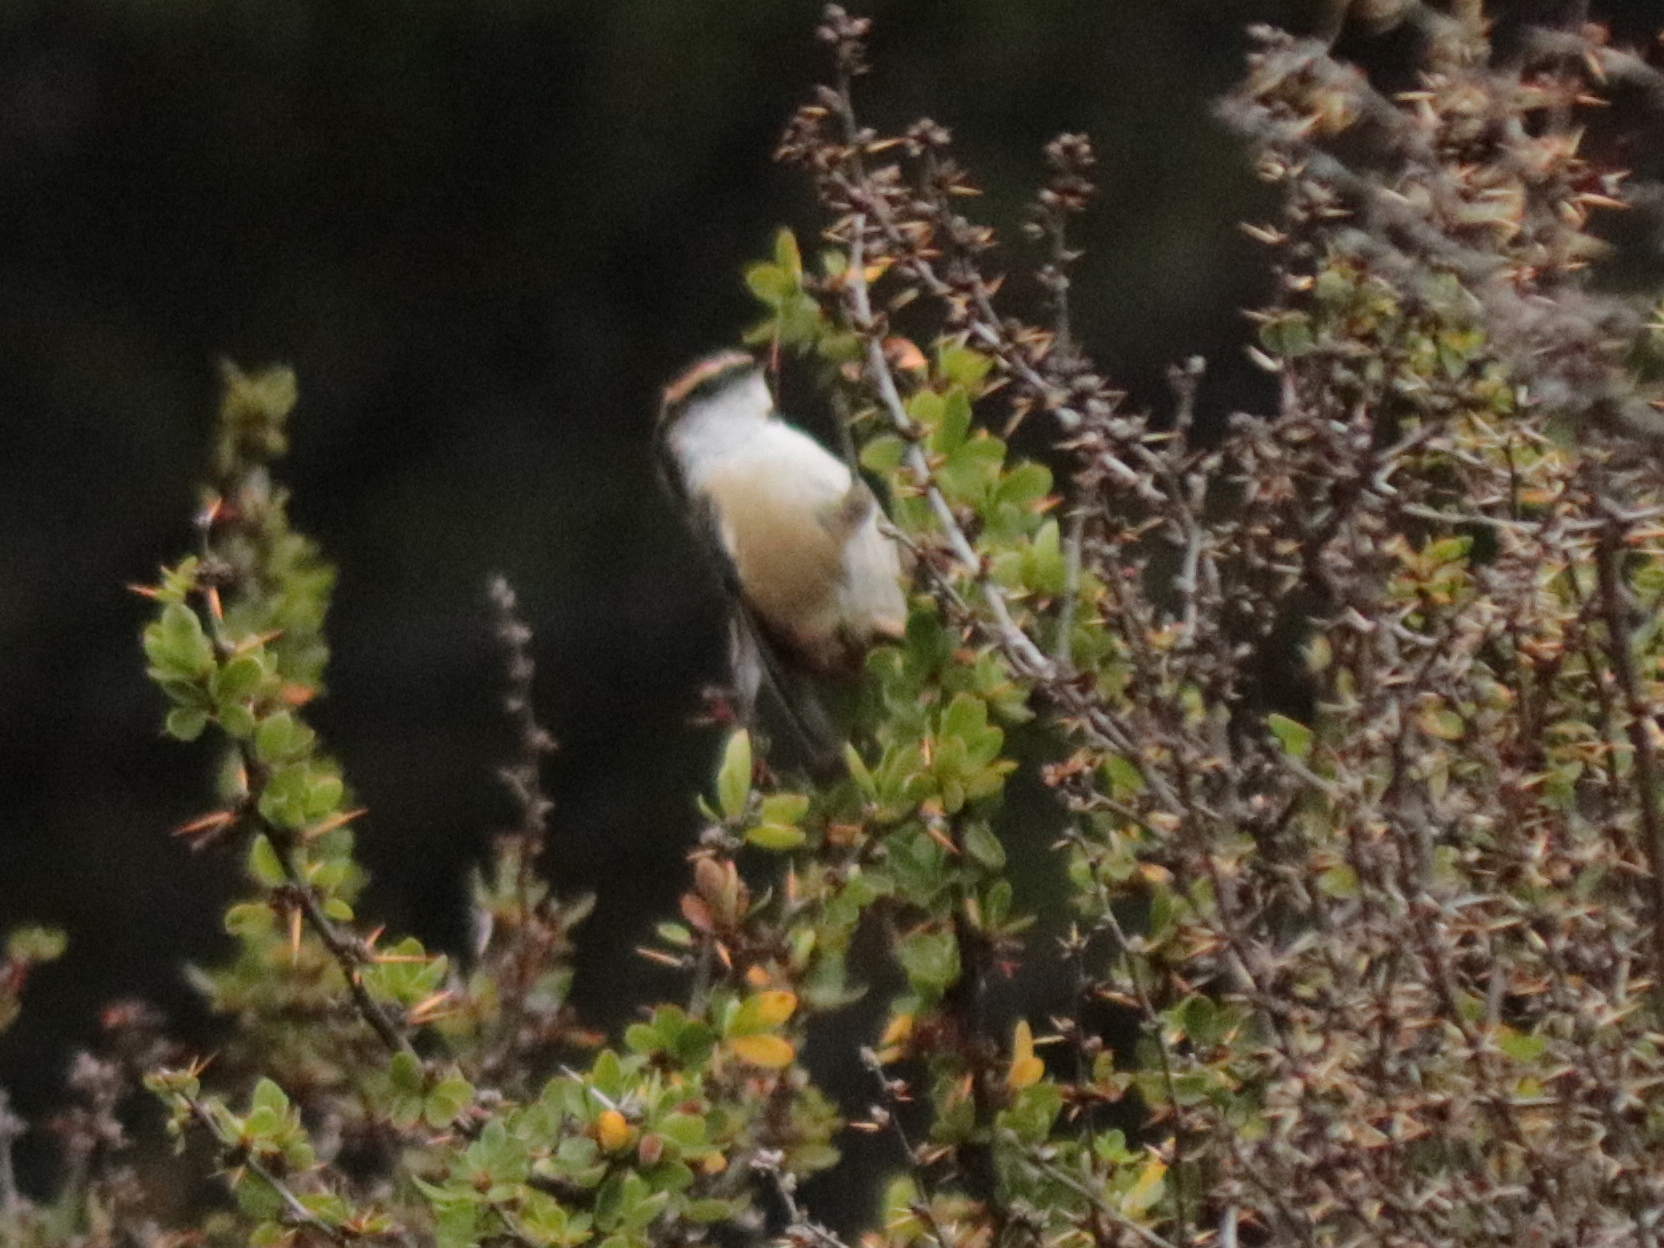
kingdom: Animalia
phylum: Chordata
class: Aves
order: Passeriformes
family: Furnariidae
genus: Aphrastura
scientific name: Aphrastura spinicauda
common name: Thorn-tailed rayadito
